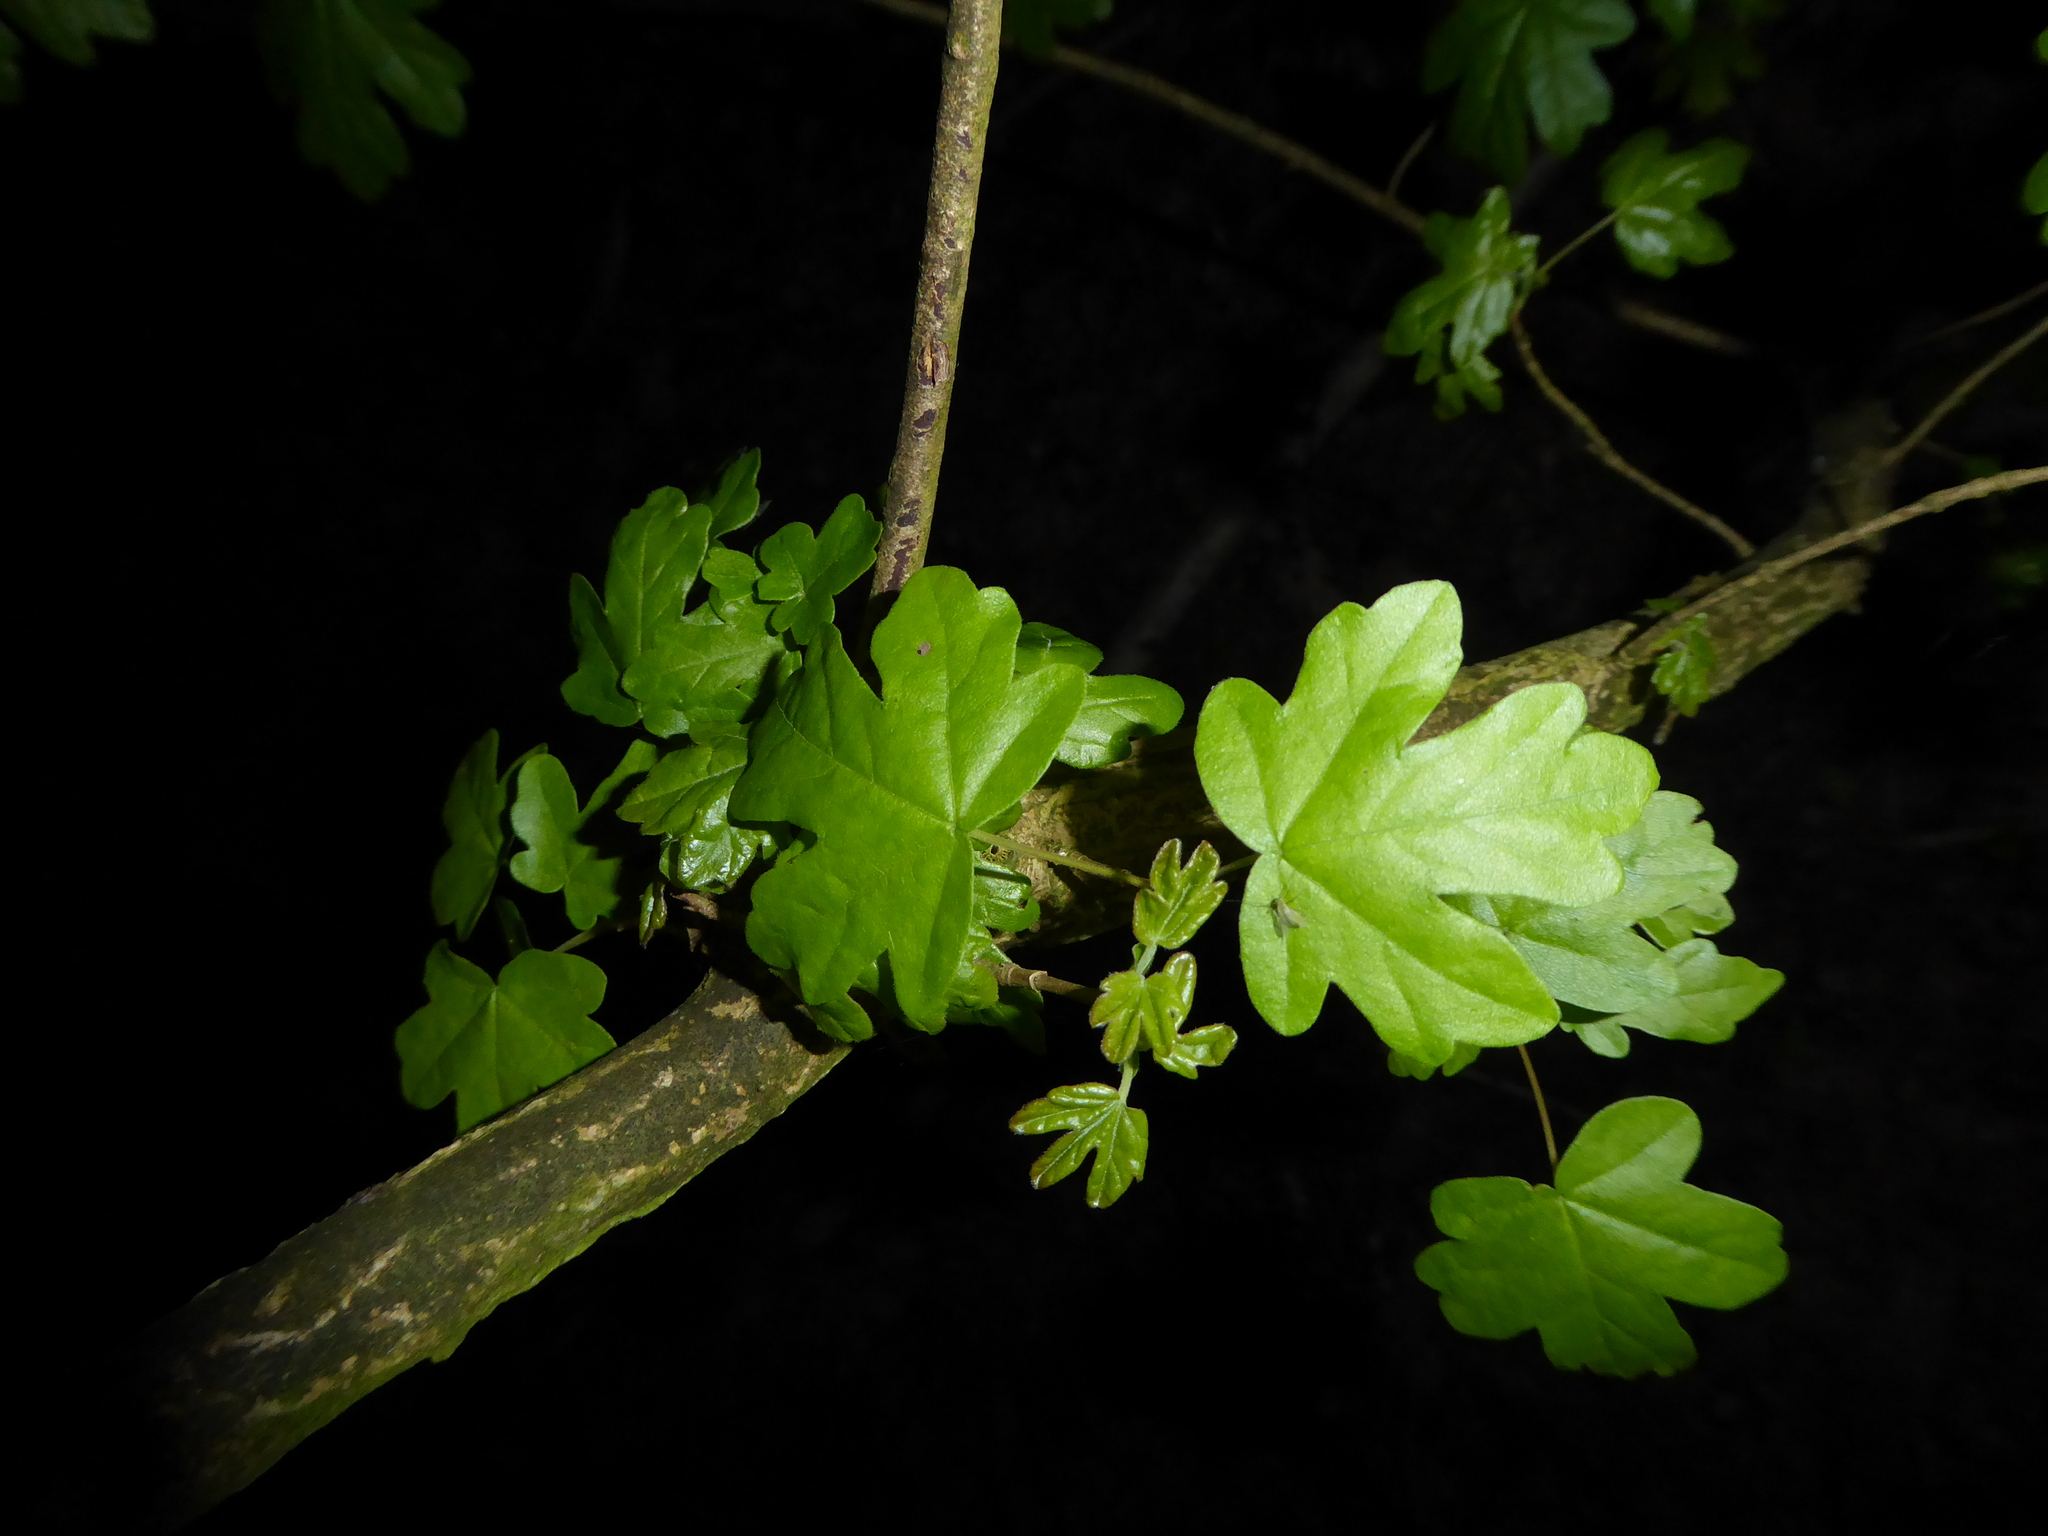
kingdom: Plantae
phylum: Tracheophyta
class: Magnoliopsida
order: Sapindales
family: Sapindaceae
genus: Acer
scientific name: Acer campestre
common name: Field maple
